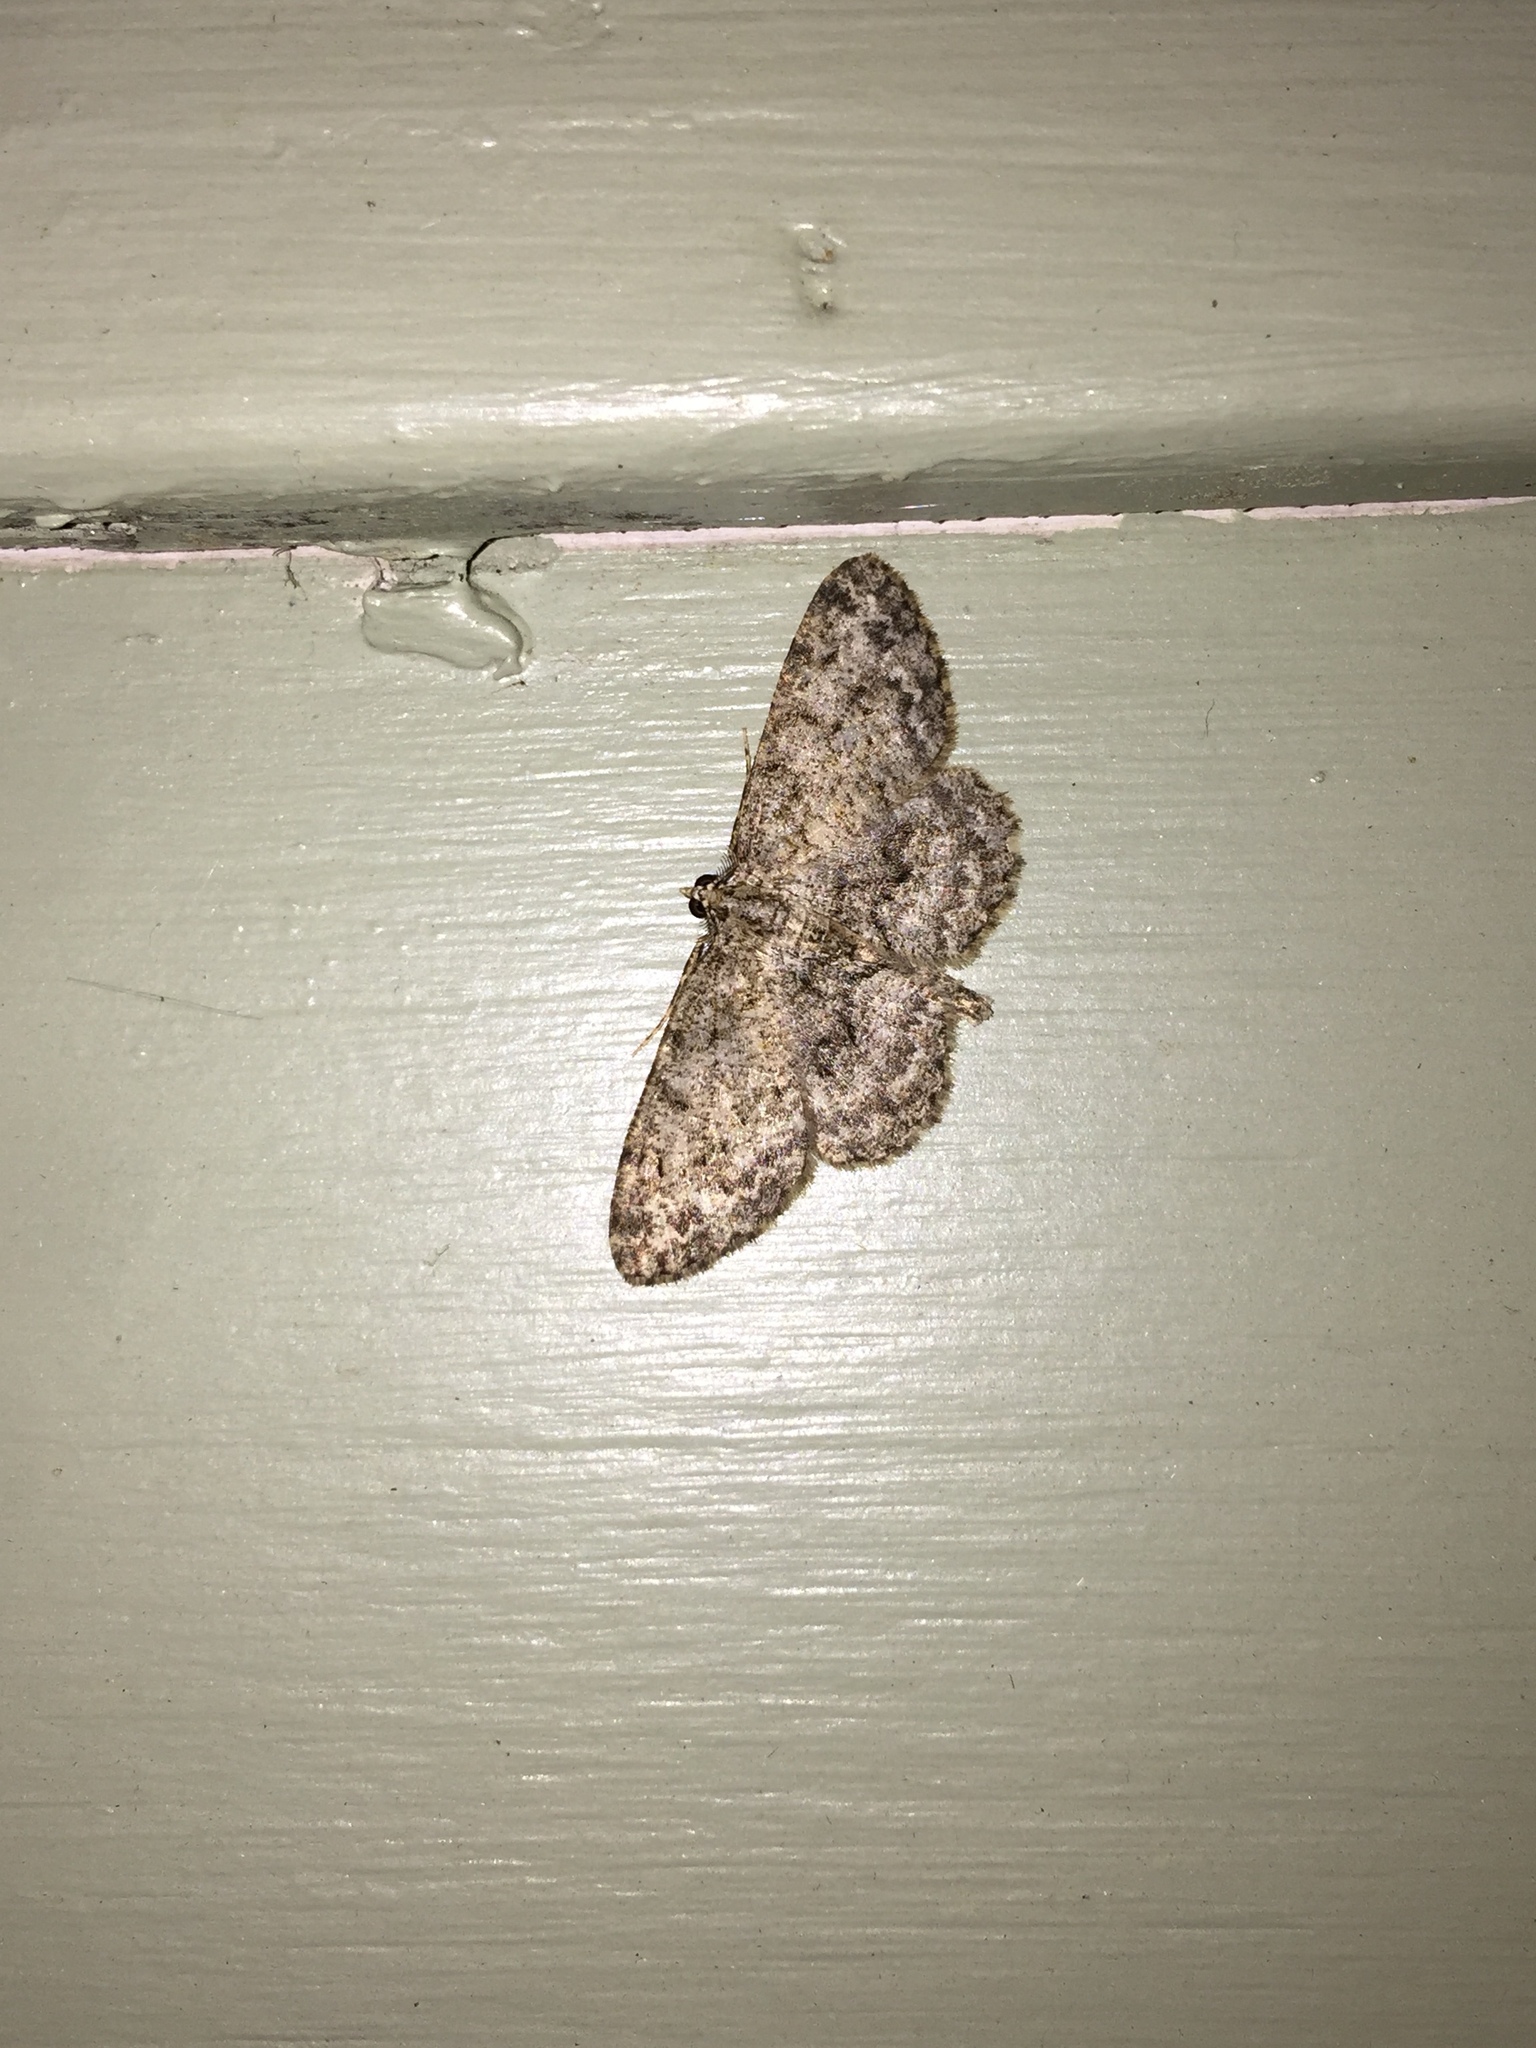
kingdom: Animalia
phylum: Arthropoda
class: Insecta
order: Lepidoptera
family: Geometridae
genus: Protoboarmia
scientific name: Protoboarmia porcelaria
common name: Porcelain gray
